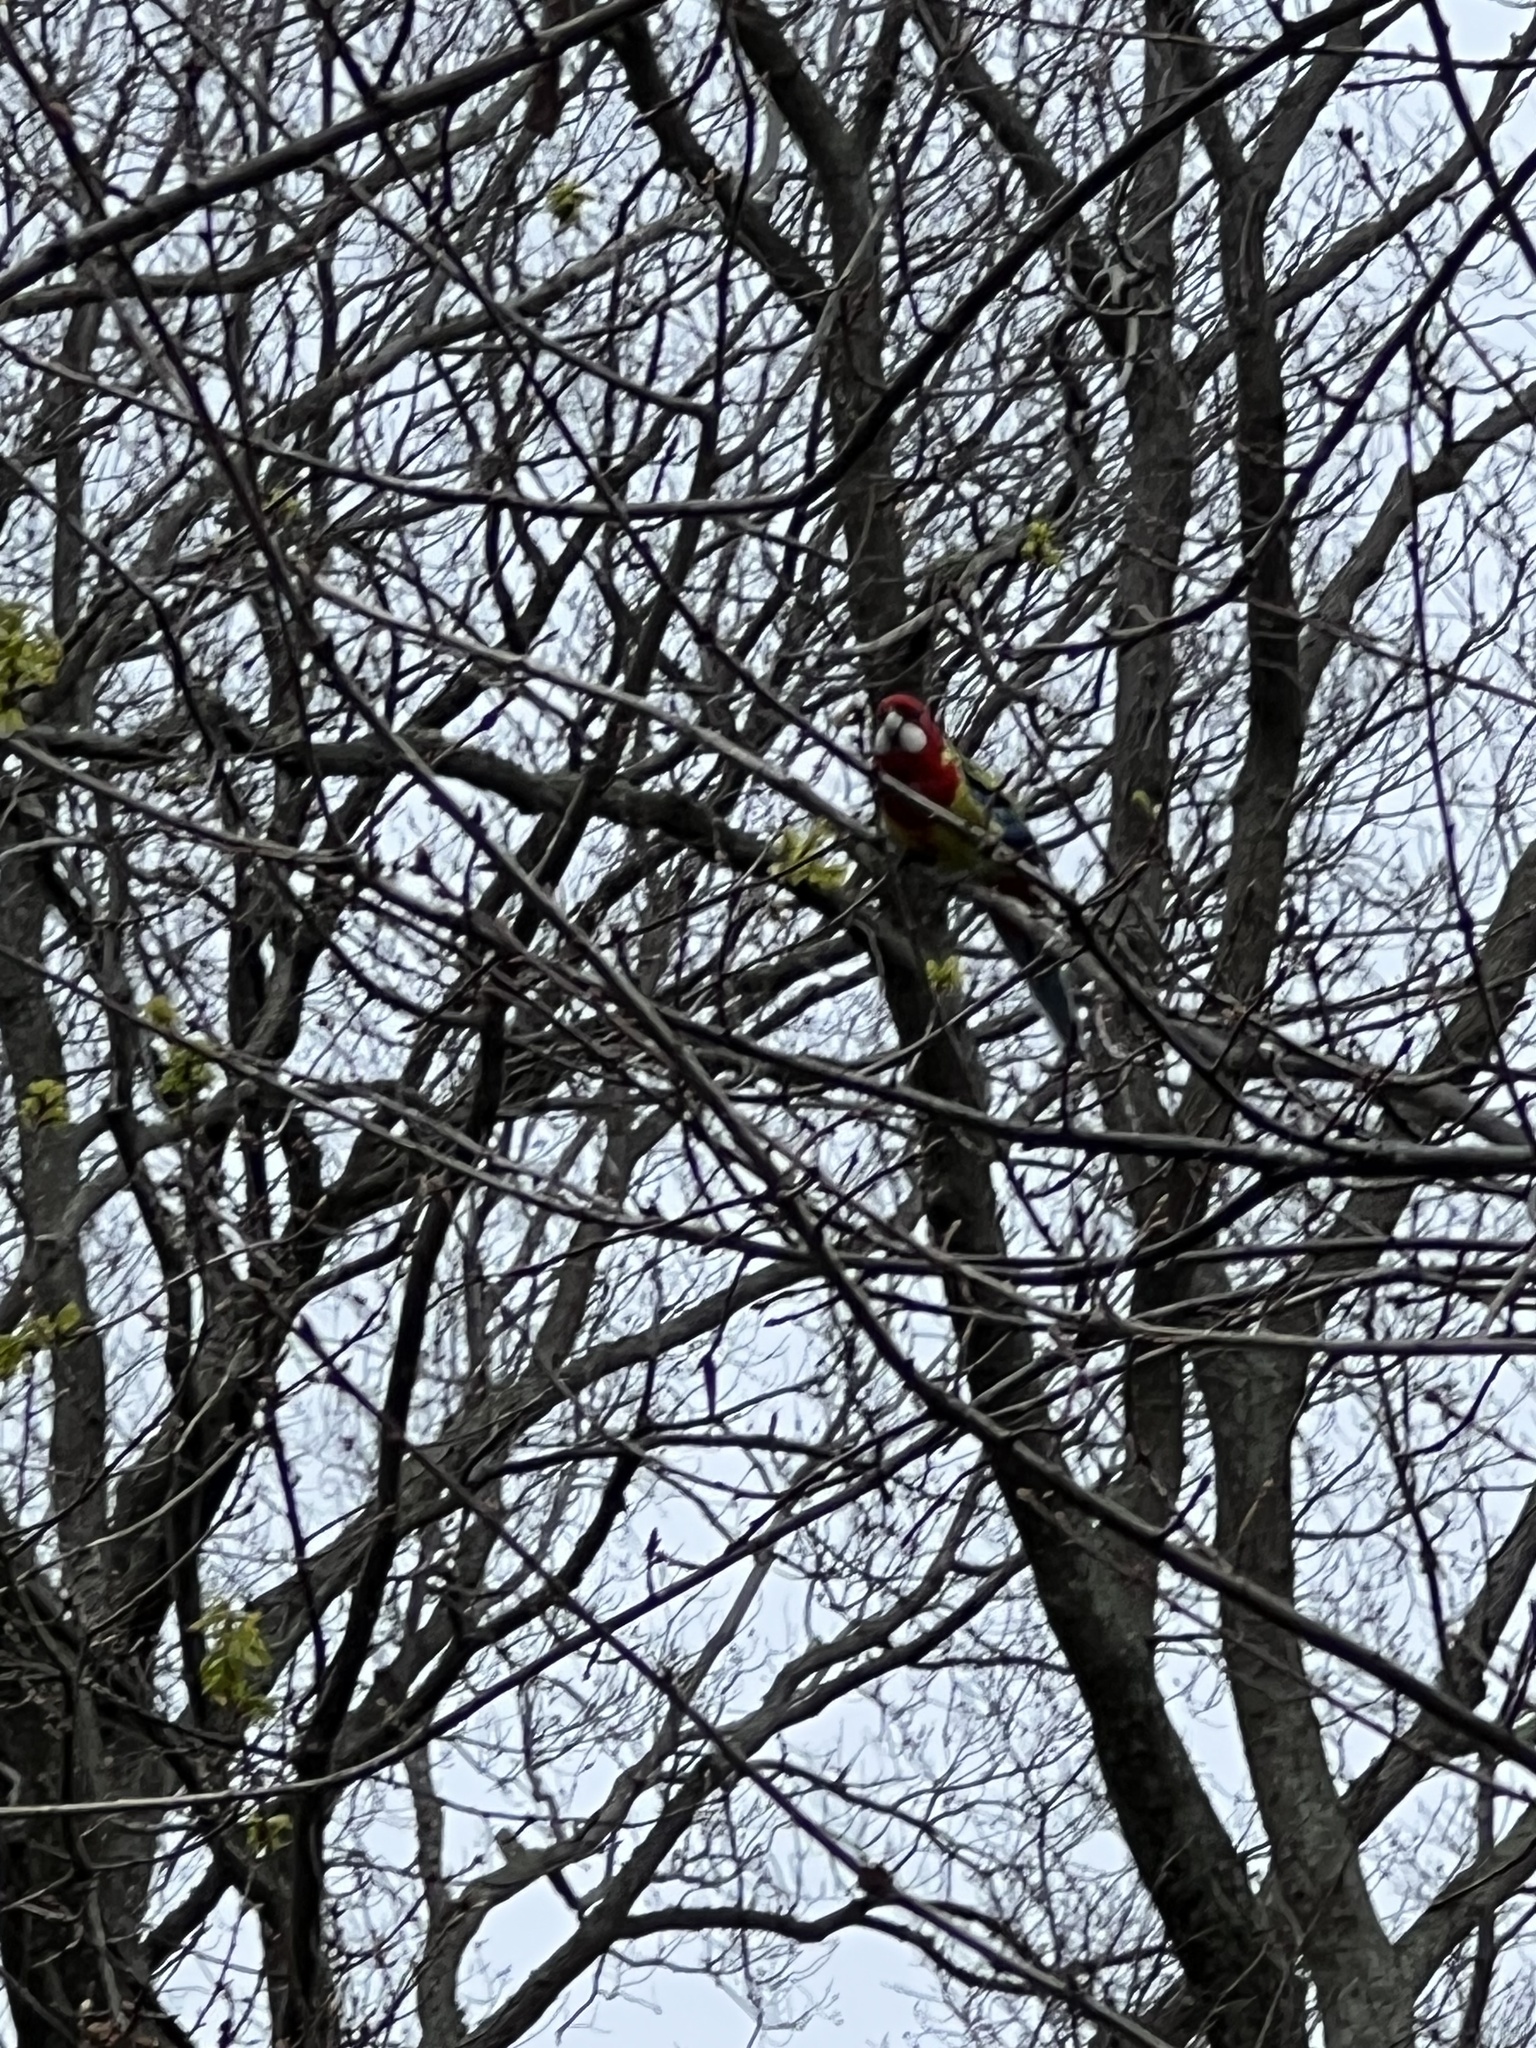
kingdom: Animalia
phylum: Chordata
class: Aves
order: Psittaciformes
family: Psittacidae
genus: Platycercus
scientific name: Platycercus eximius
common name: Eastern rosella
